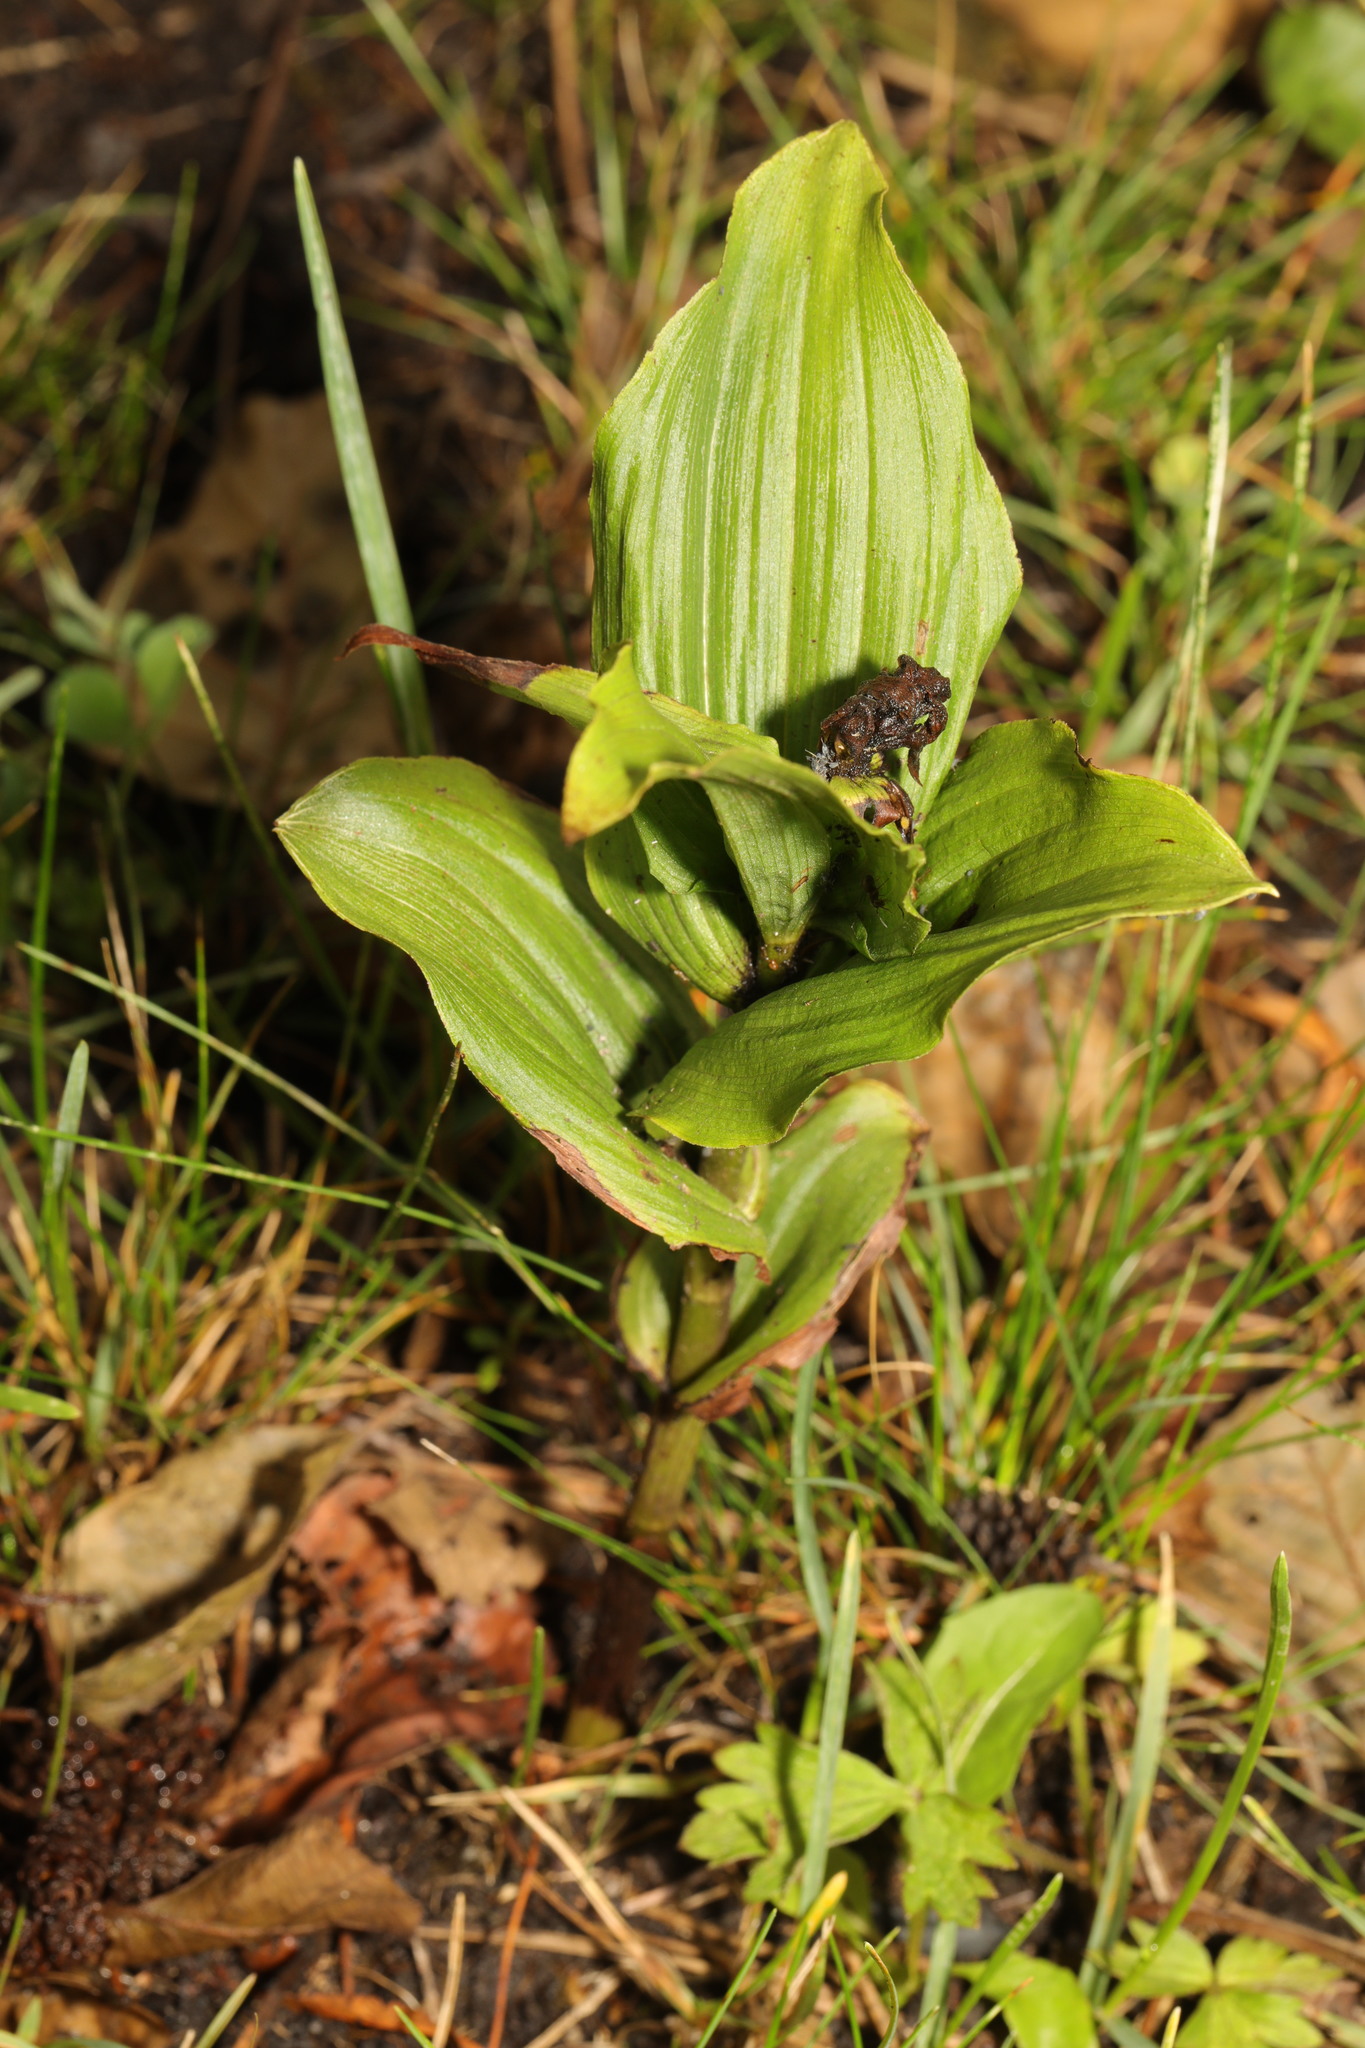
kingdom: Plantae
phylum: Tracheophyta
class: Liliopsida
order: Asparagales
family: Orchidaceae
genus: Epipactis
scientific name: Epipactis helleborine
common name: Broad-leaved helleborine
